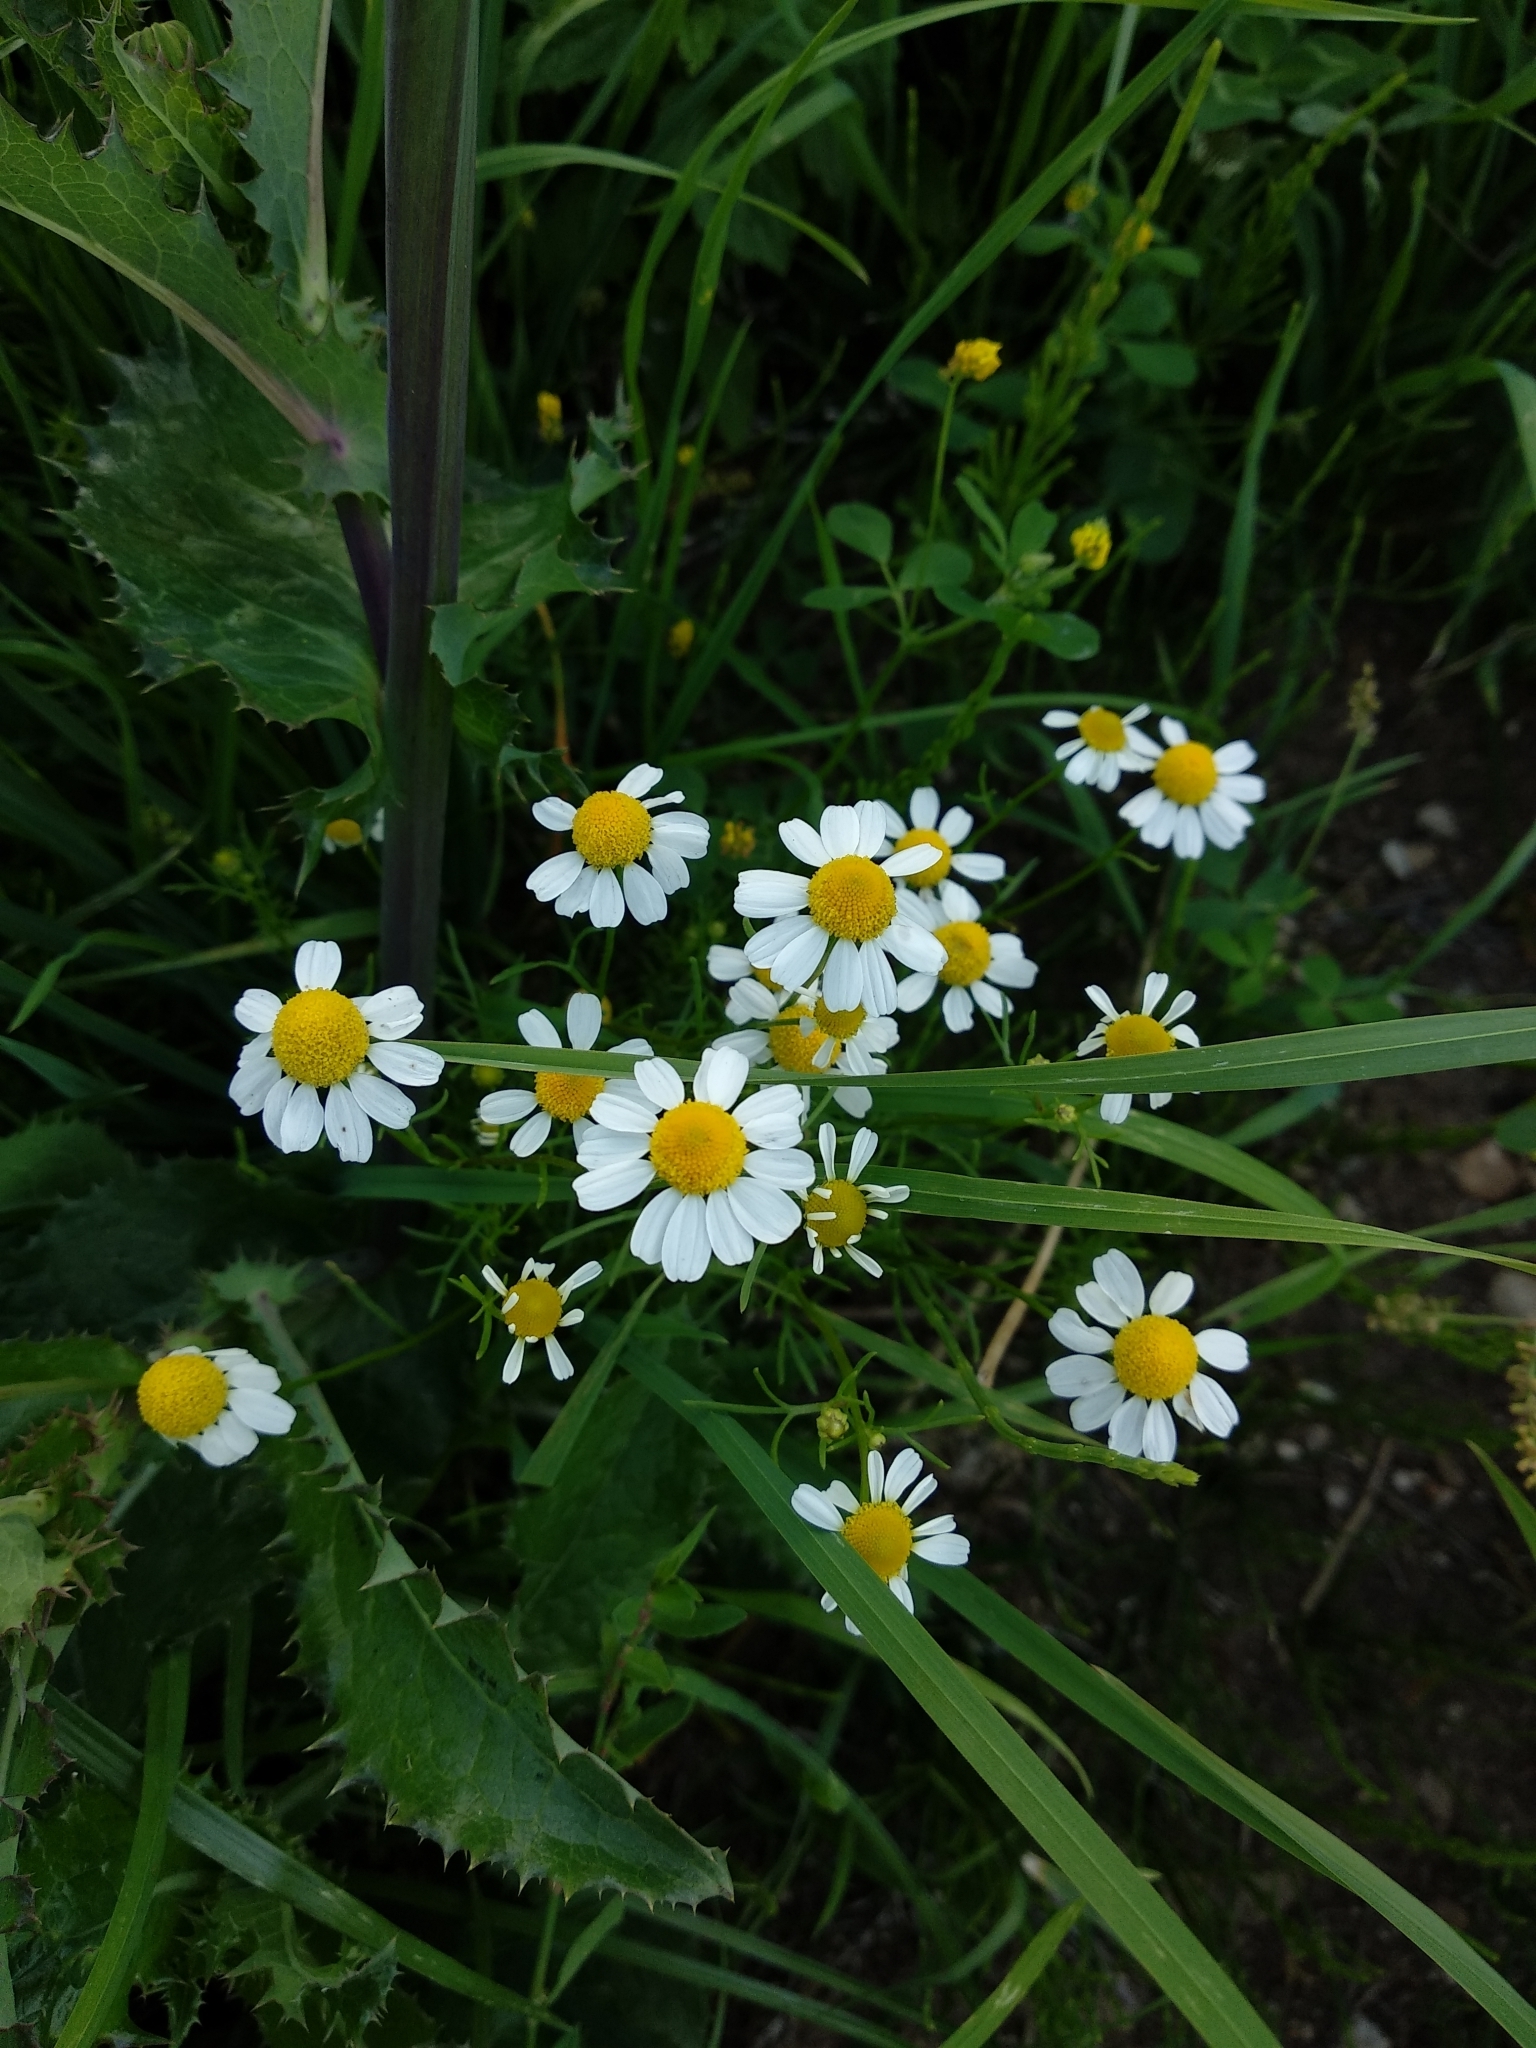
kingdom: Plantae
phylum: Tracheophyta
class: Magnoliopsida
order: Asterales
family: Asteraceae
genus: Matricaria
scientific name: Matricaria chamomilla
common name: Scented mayweed
